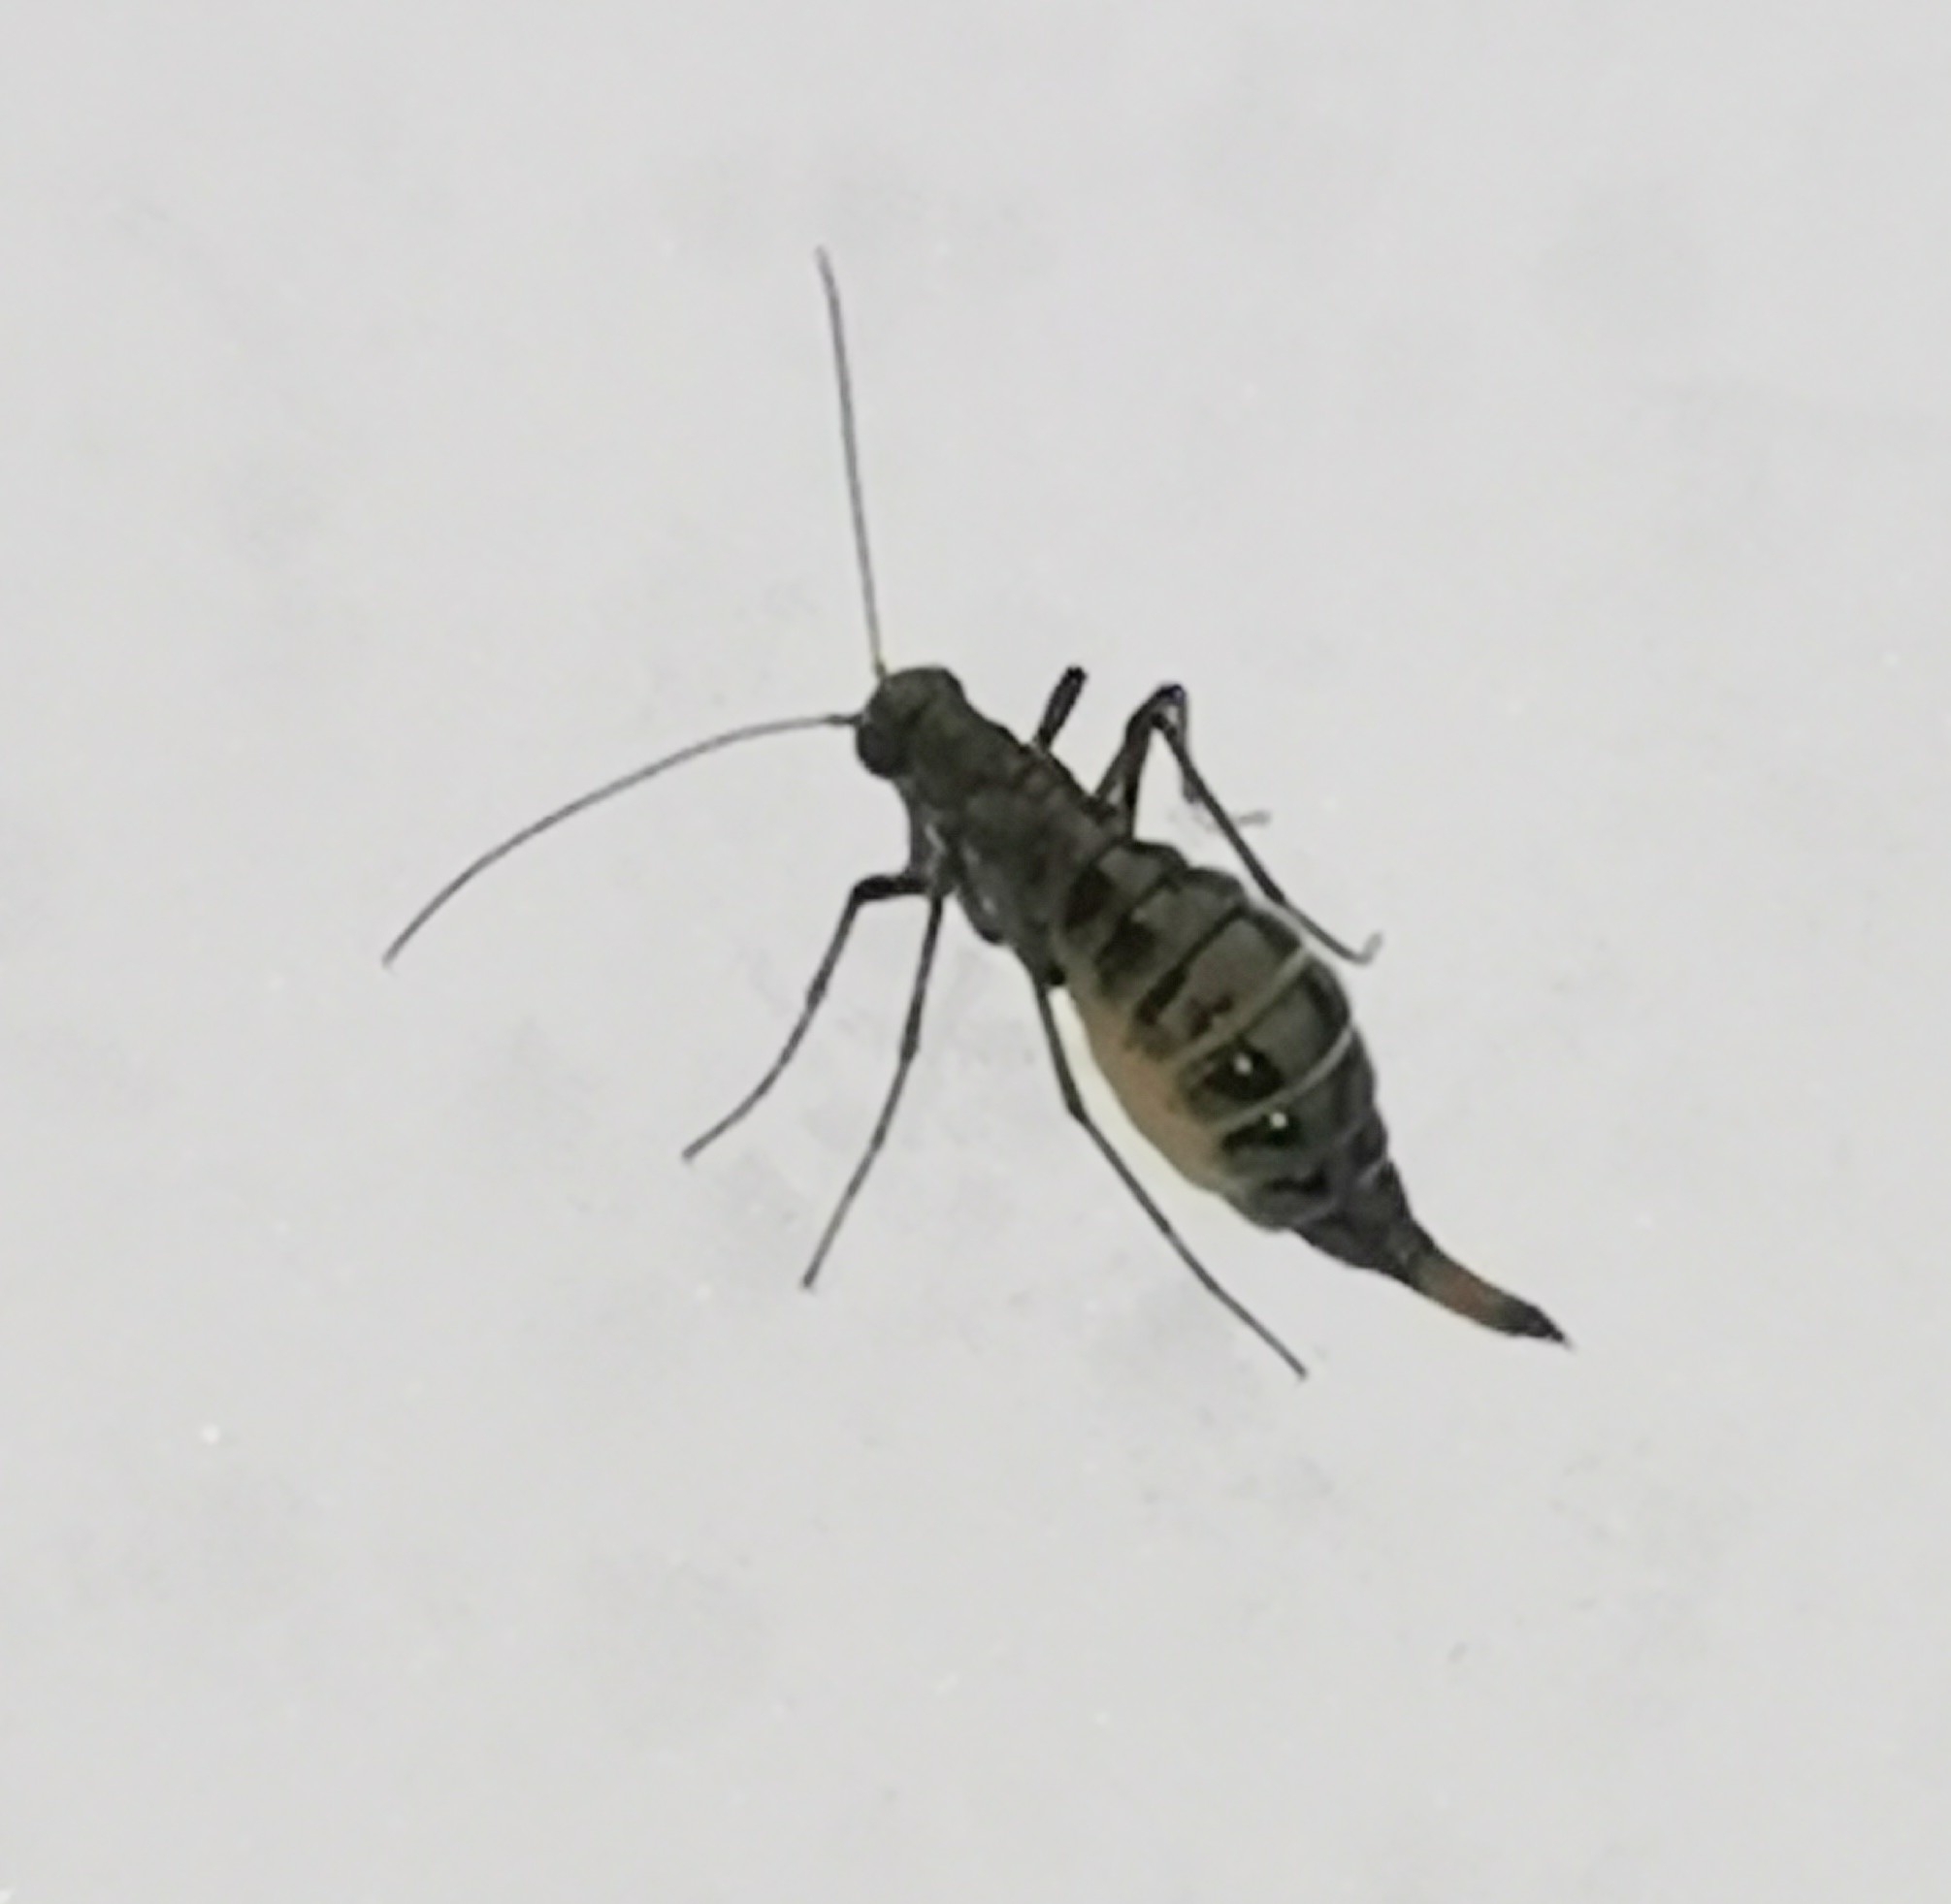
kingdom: Animalia
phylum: Arthropoda
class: Insecta
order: Mecoptera
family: Boreidae
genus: Boreus
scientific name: Boreus westwoodi
